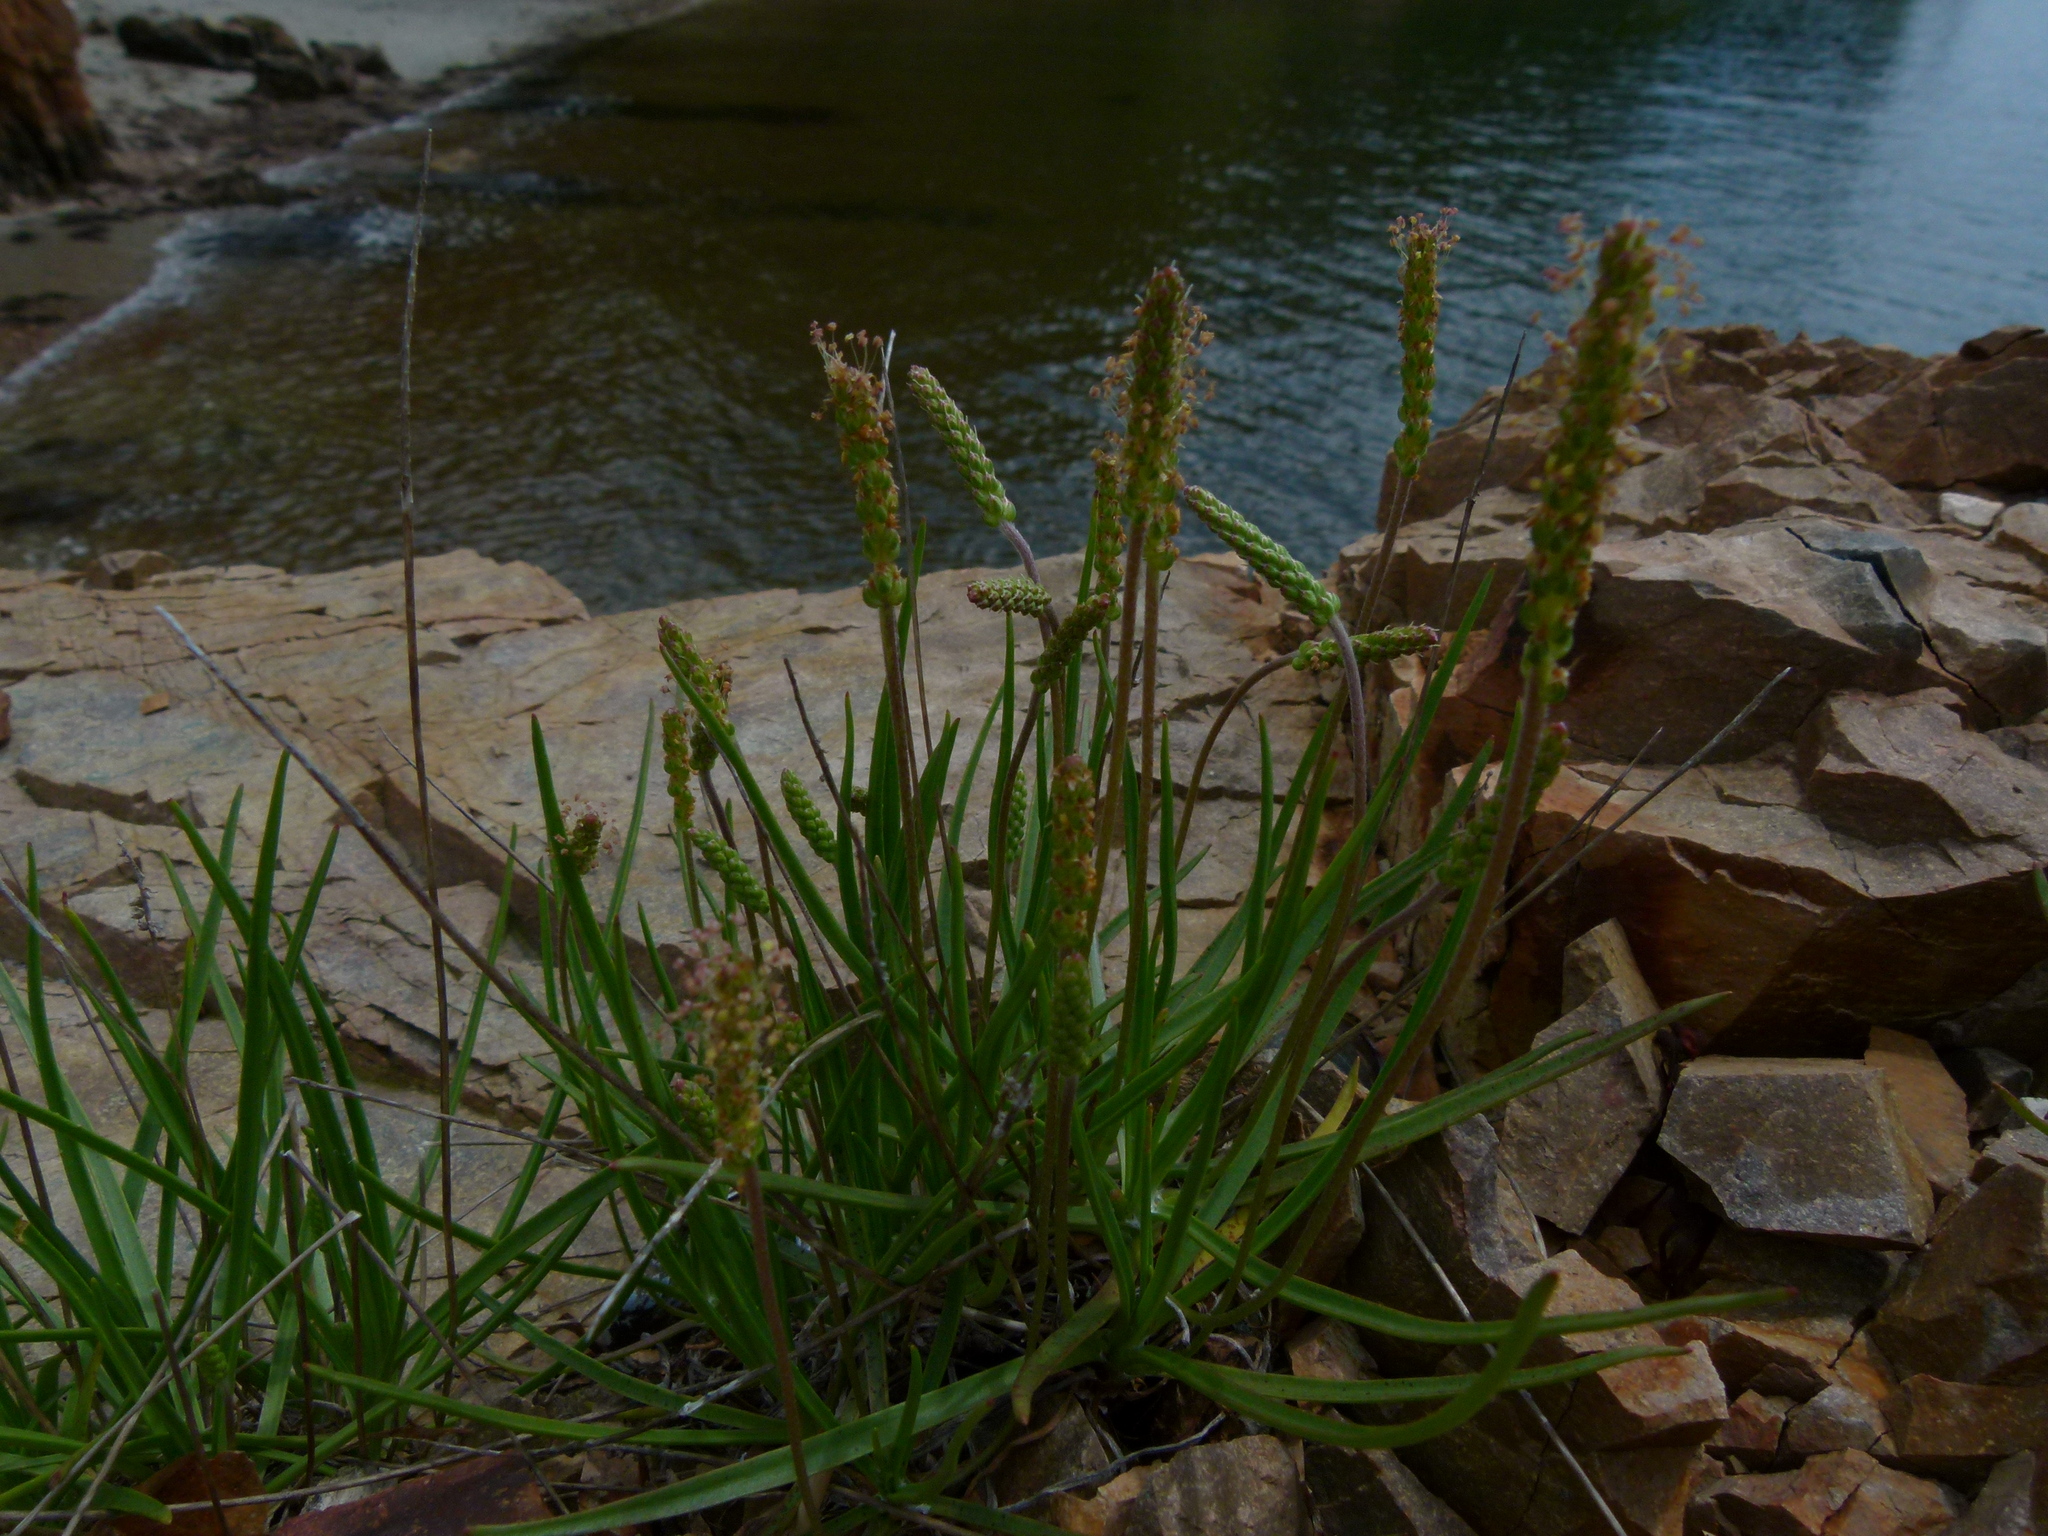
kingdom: Plantae
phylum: Tracheophyta
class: Magnoliopsida
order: Lamiales
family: Plantaginaceae
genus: Plantago
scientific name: Plantago maritima
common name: Sea plantain
